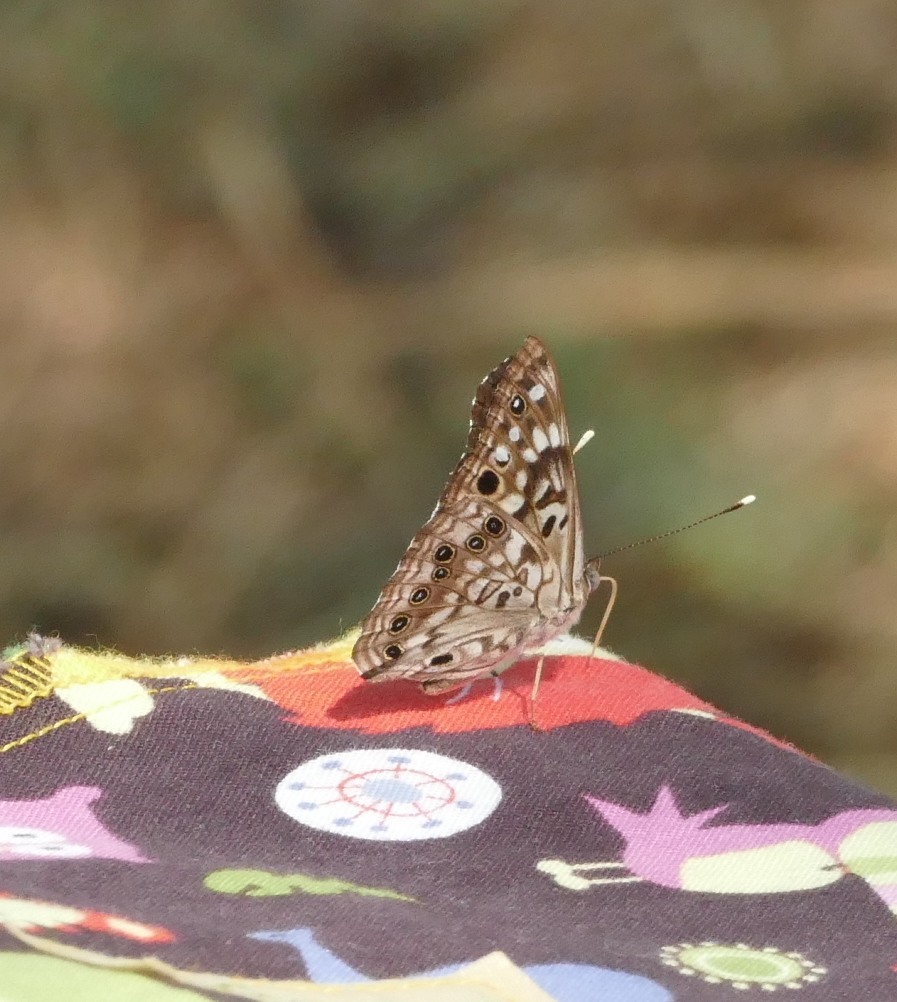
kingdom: Animalia
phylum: Arthropoda
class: Insecta
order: Lepidoptera
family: Nymphalidae
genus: Asterocampa
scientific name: Asterocampa celtis
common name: Hackberry emperor
